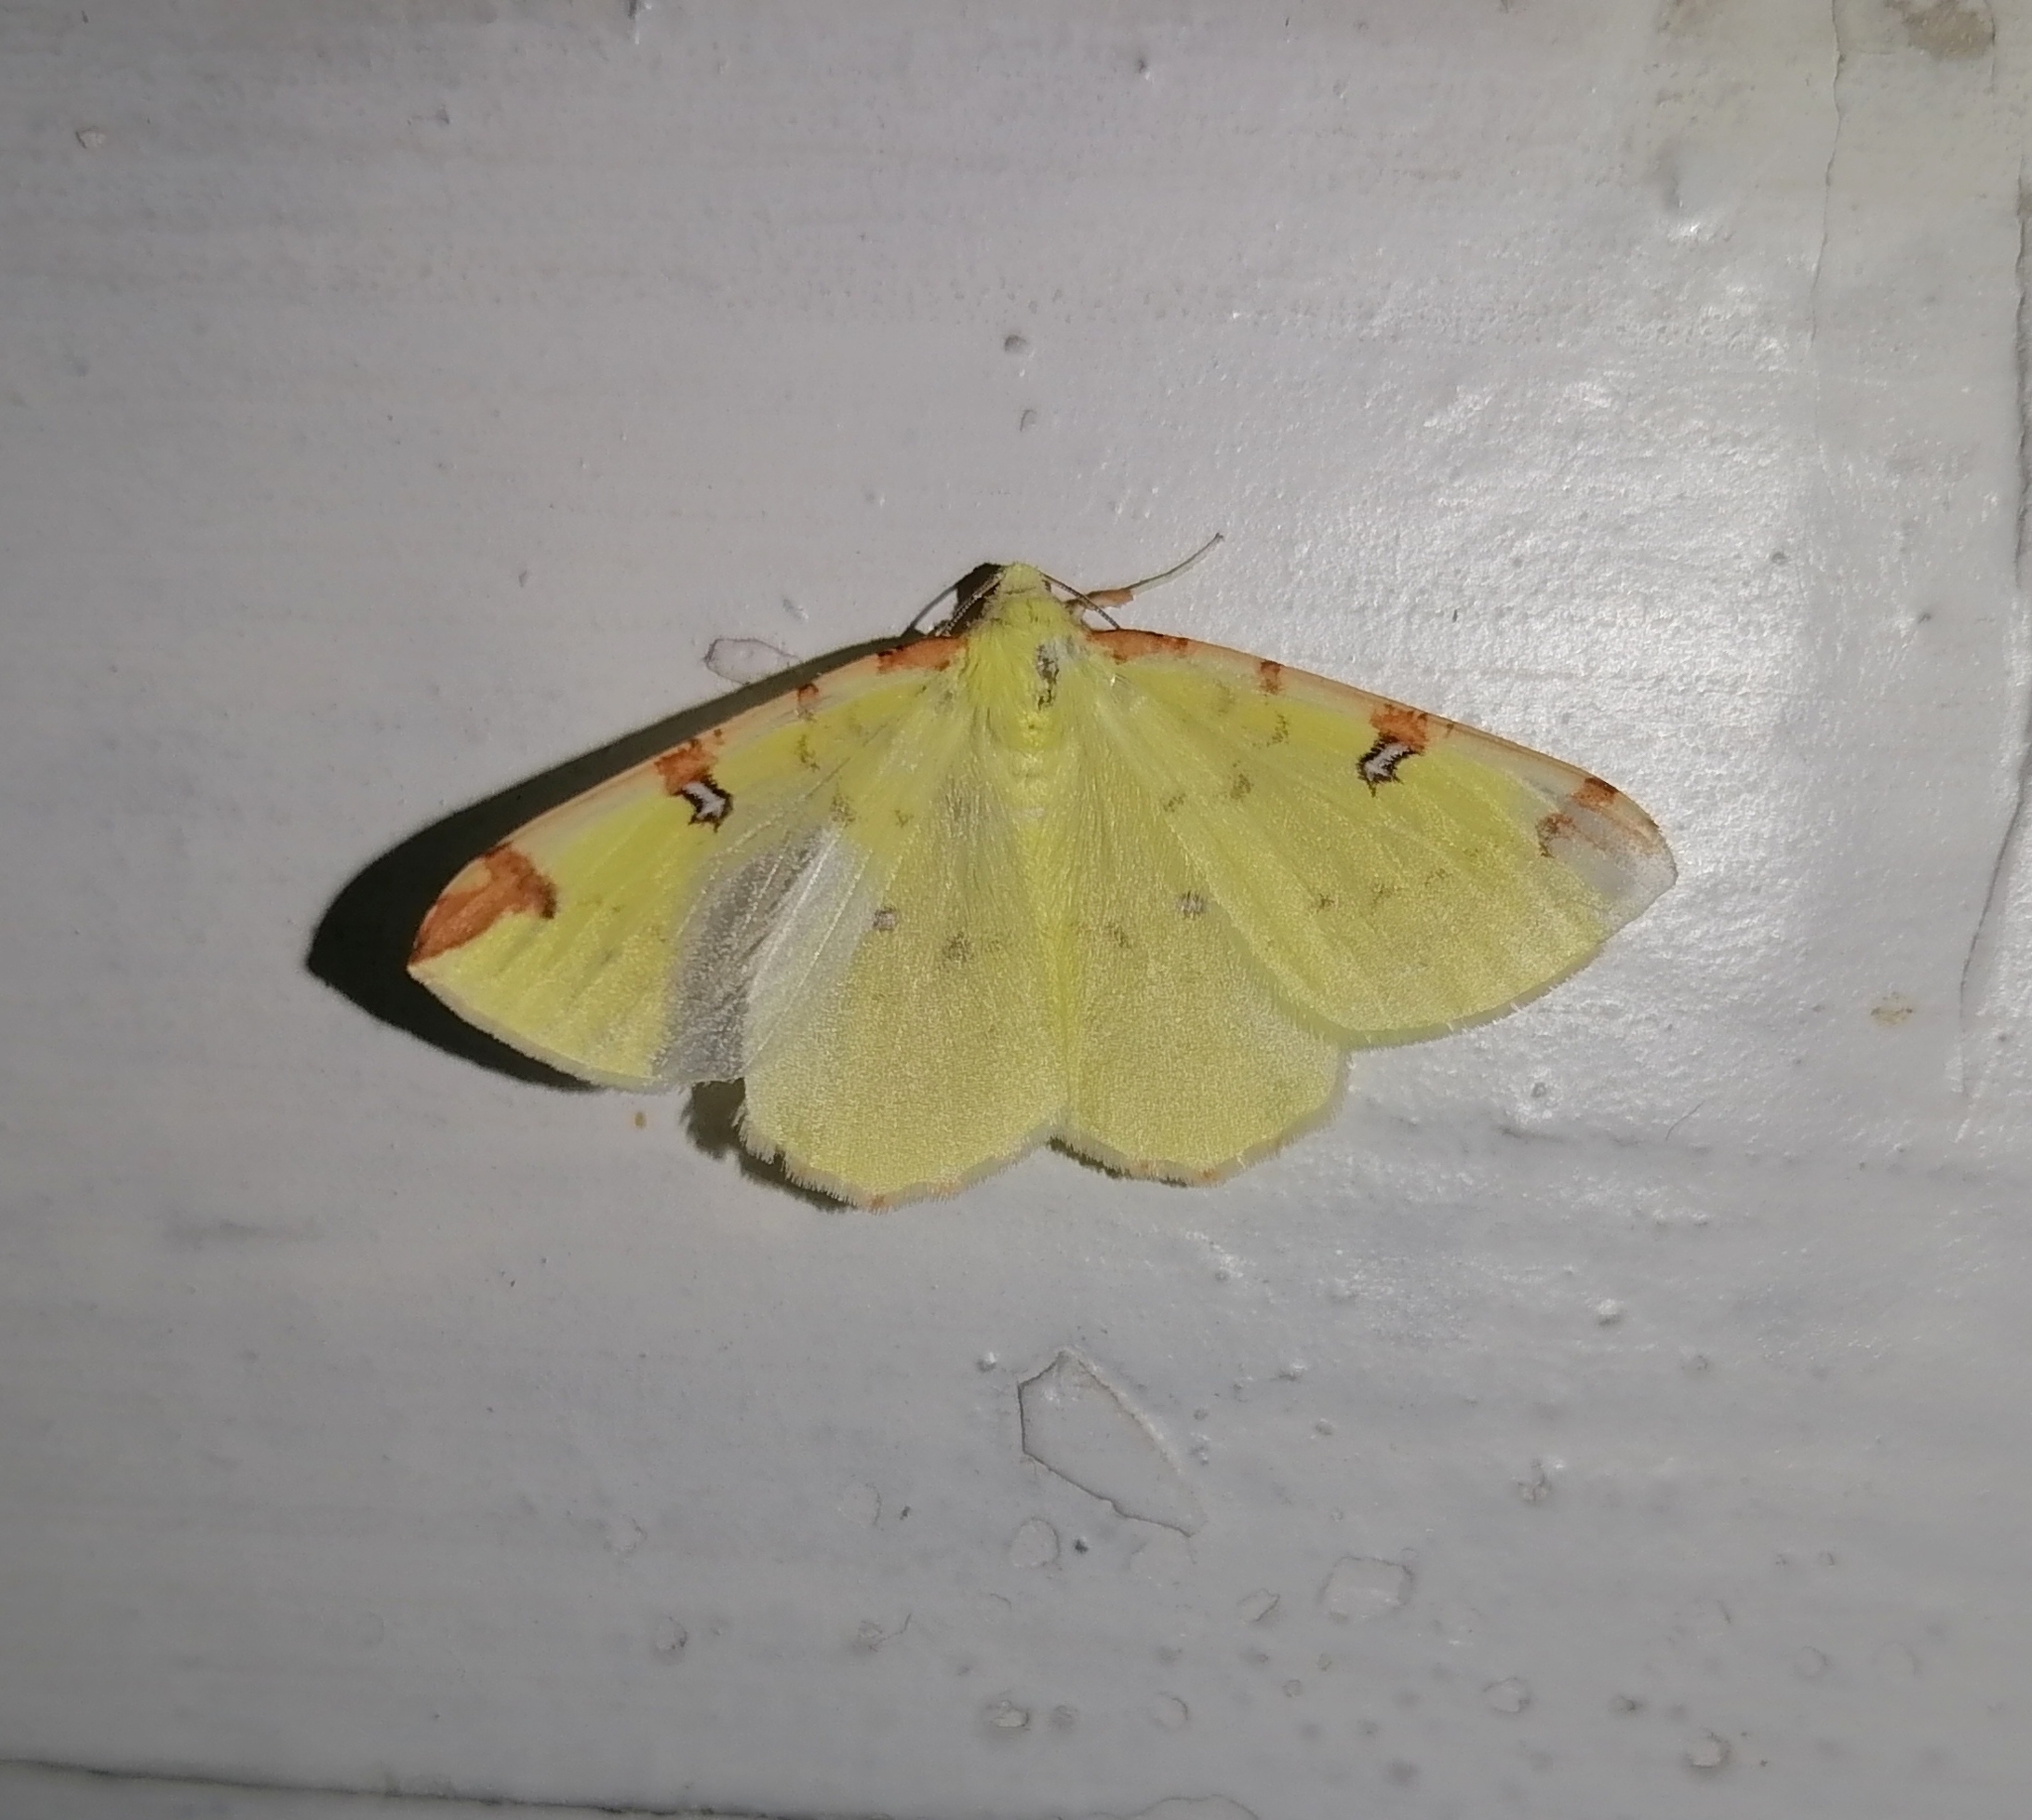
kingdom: Animalia
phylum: Arthropoda
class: Insecta
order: Lepidoptera
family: Geometridae
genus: Opisthograptis
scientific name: Opisthograptis luteolata
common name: Brimstone moth
